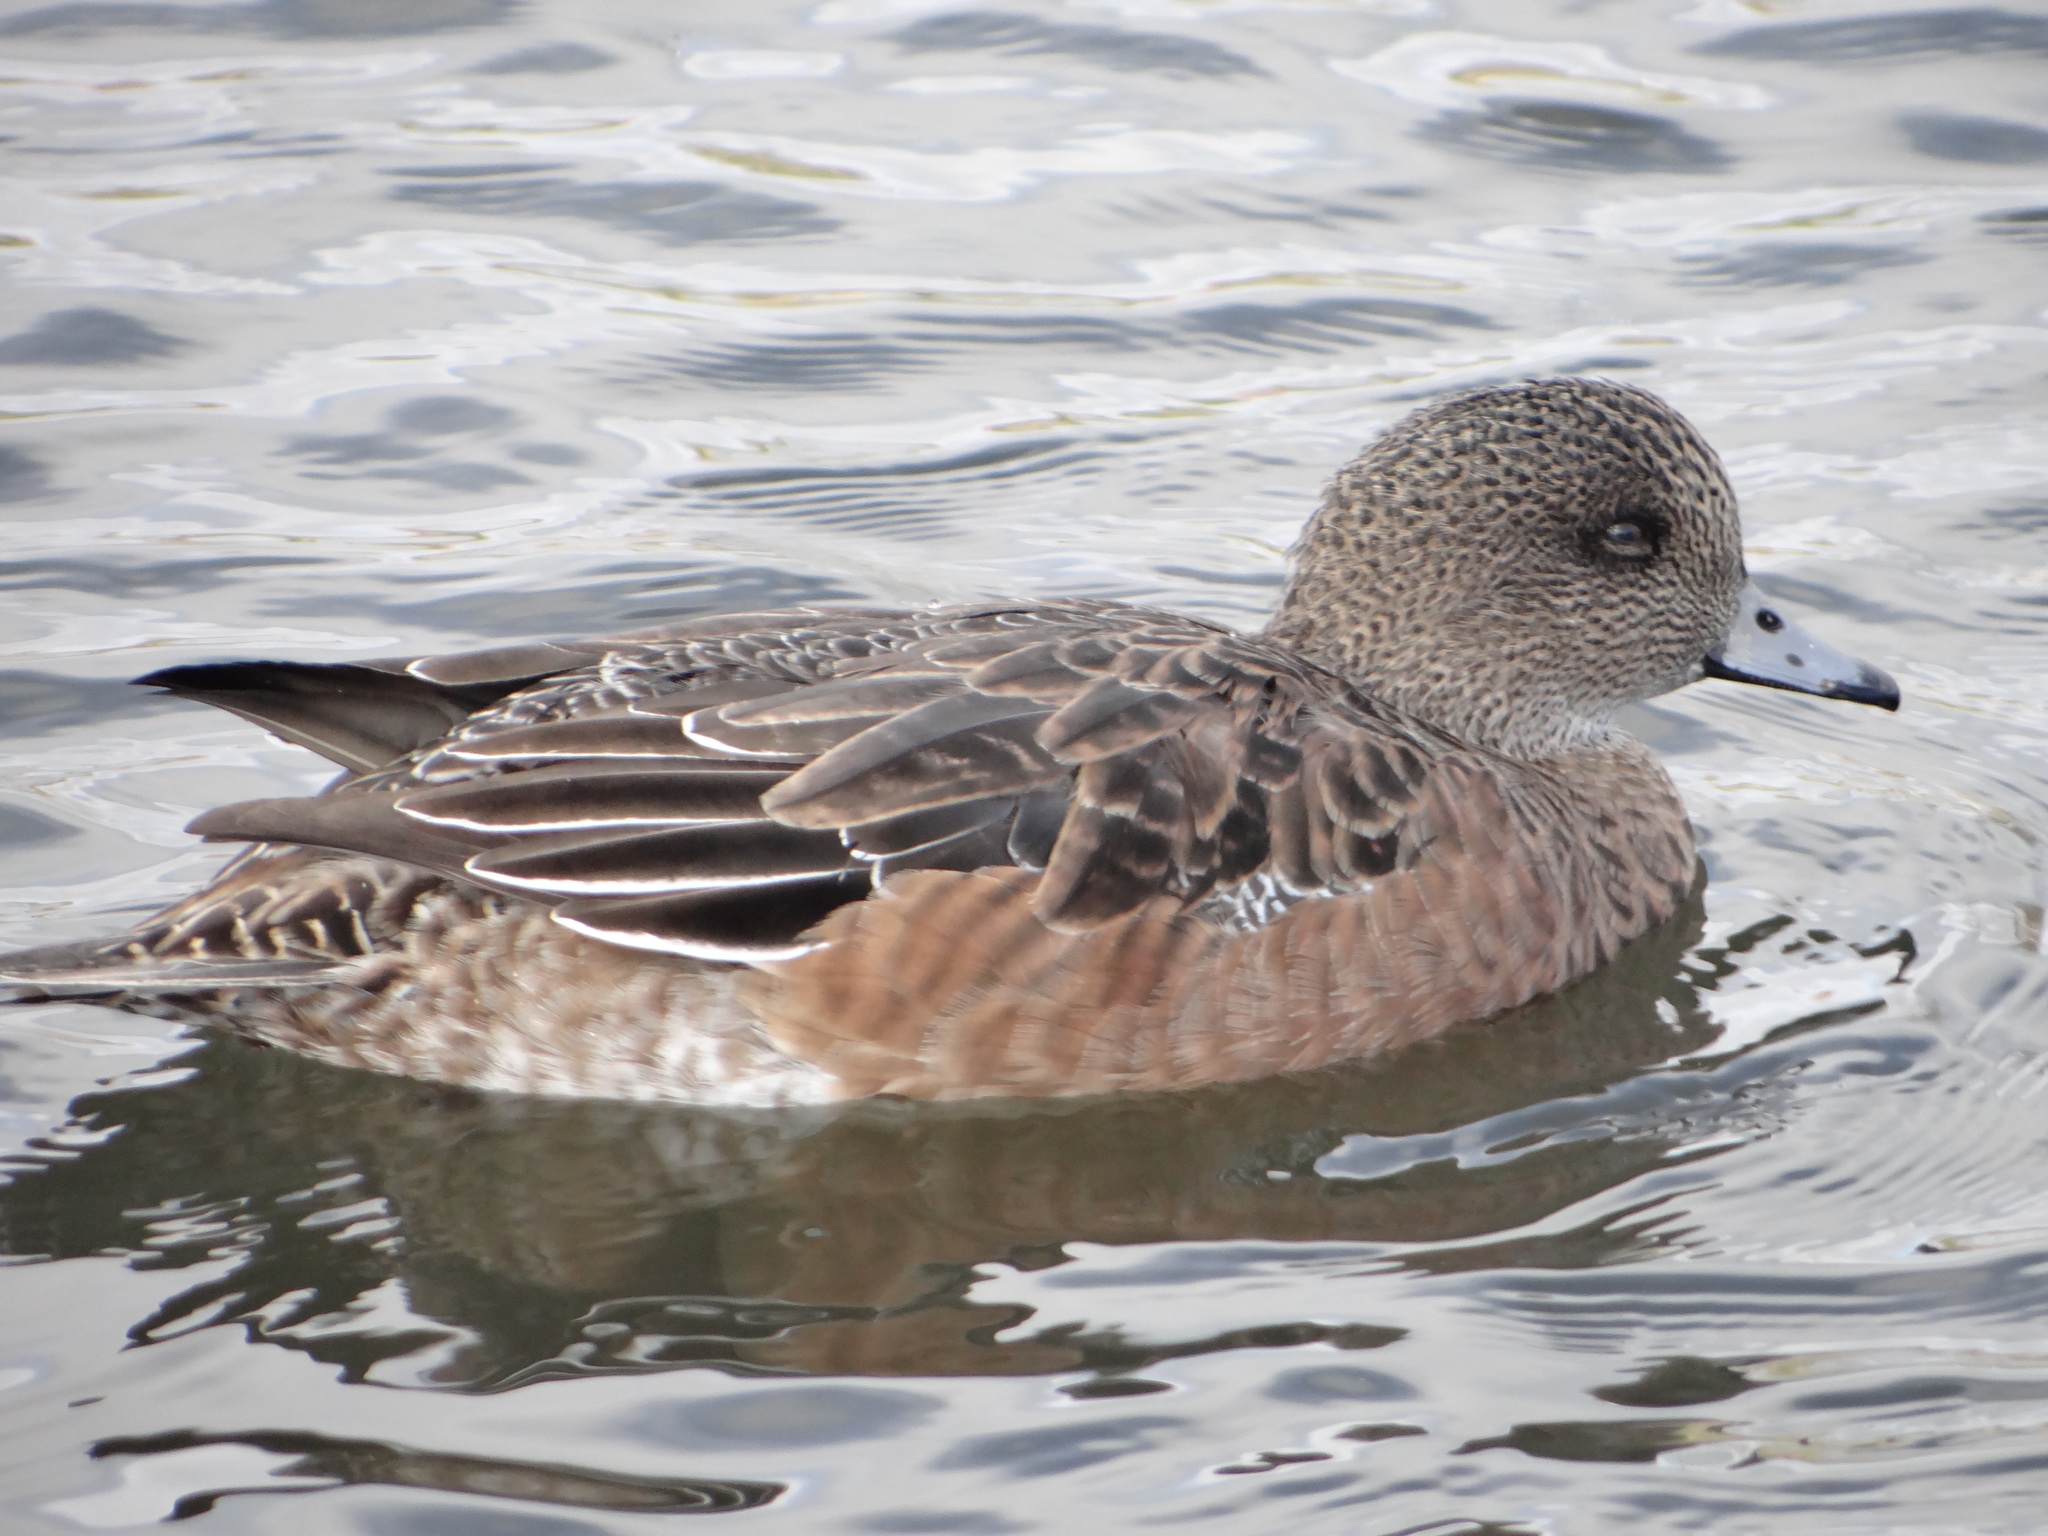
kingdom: Animalia
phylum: Chordata
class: Aves
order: Anseriformes
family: Anatidae
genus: Mareca
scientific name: Mareca americana
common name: American wigeon
